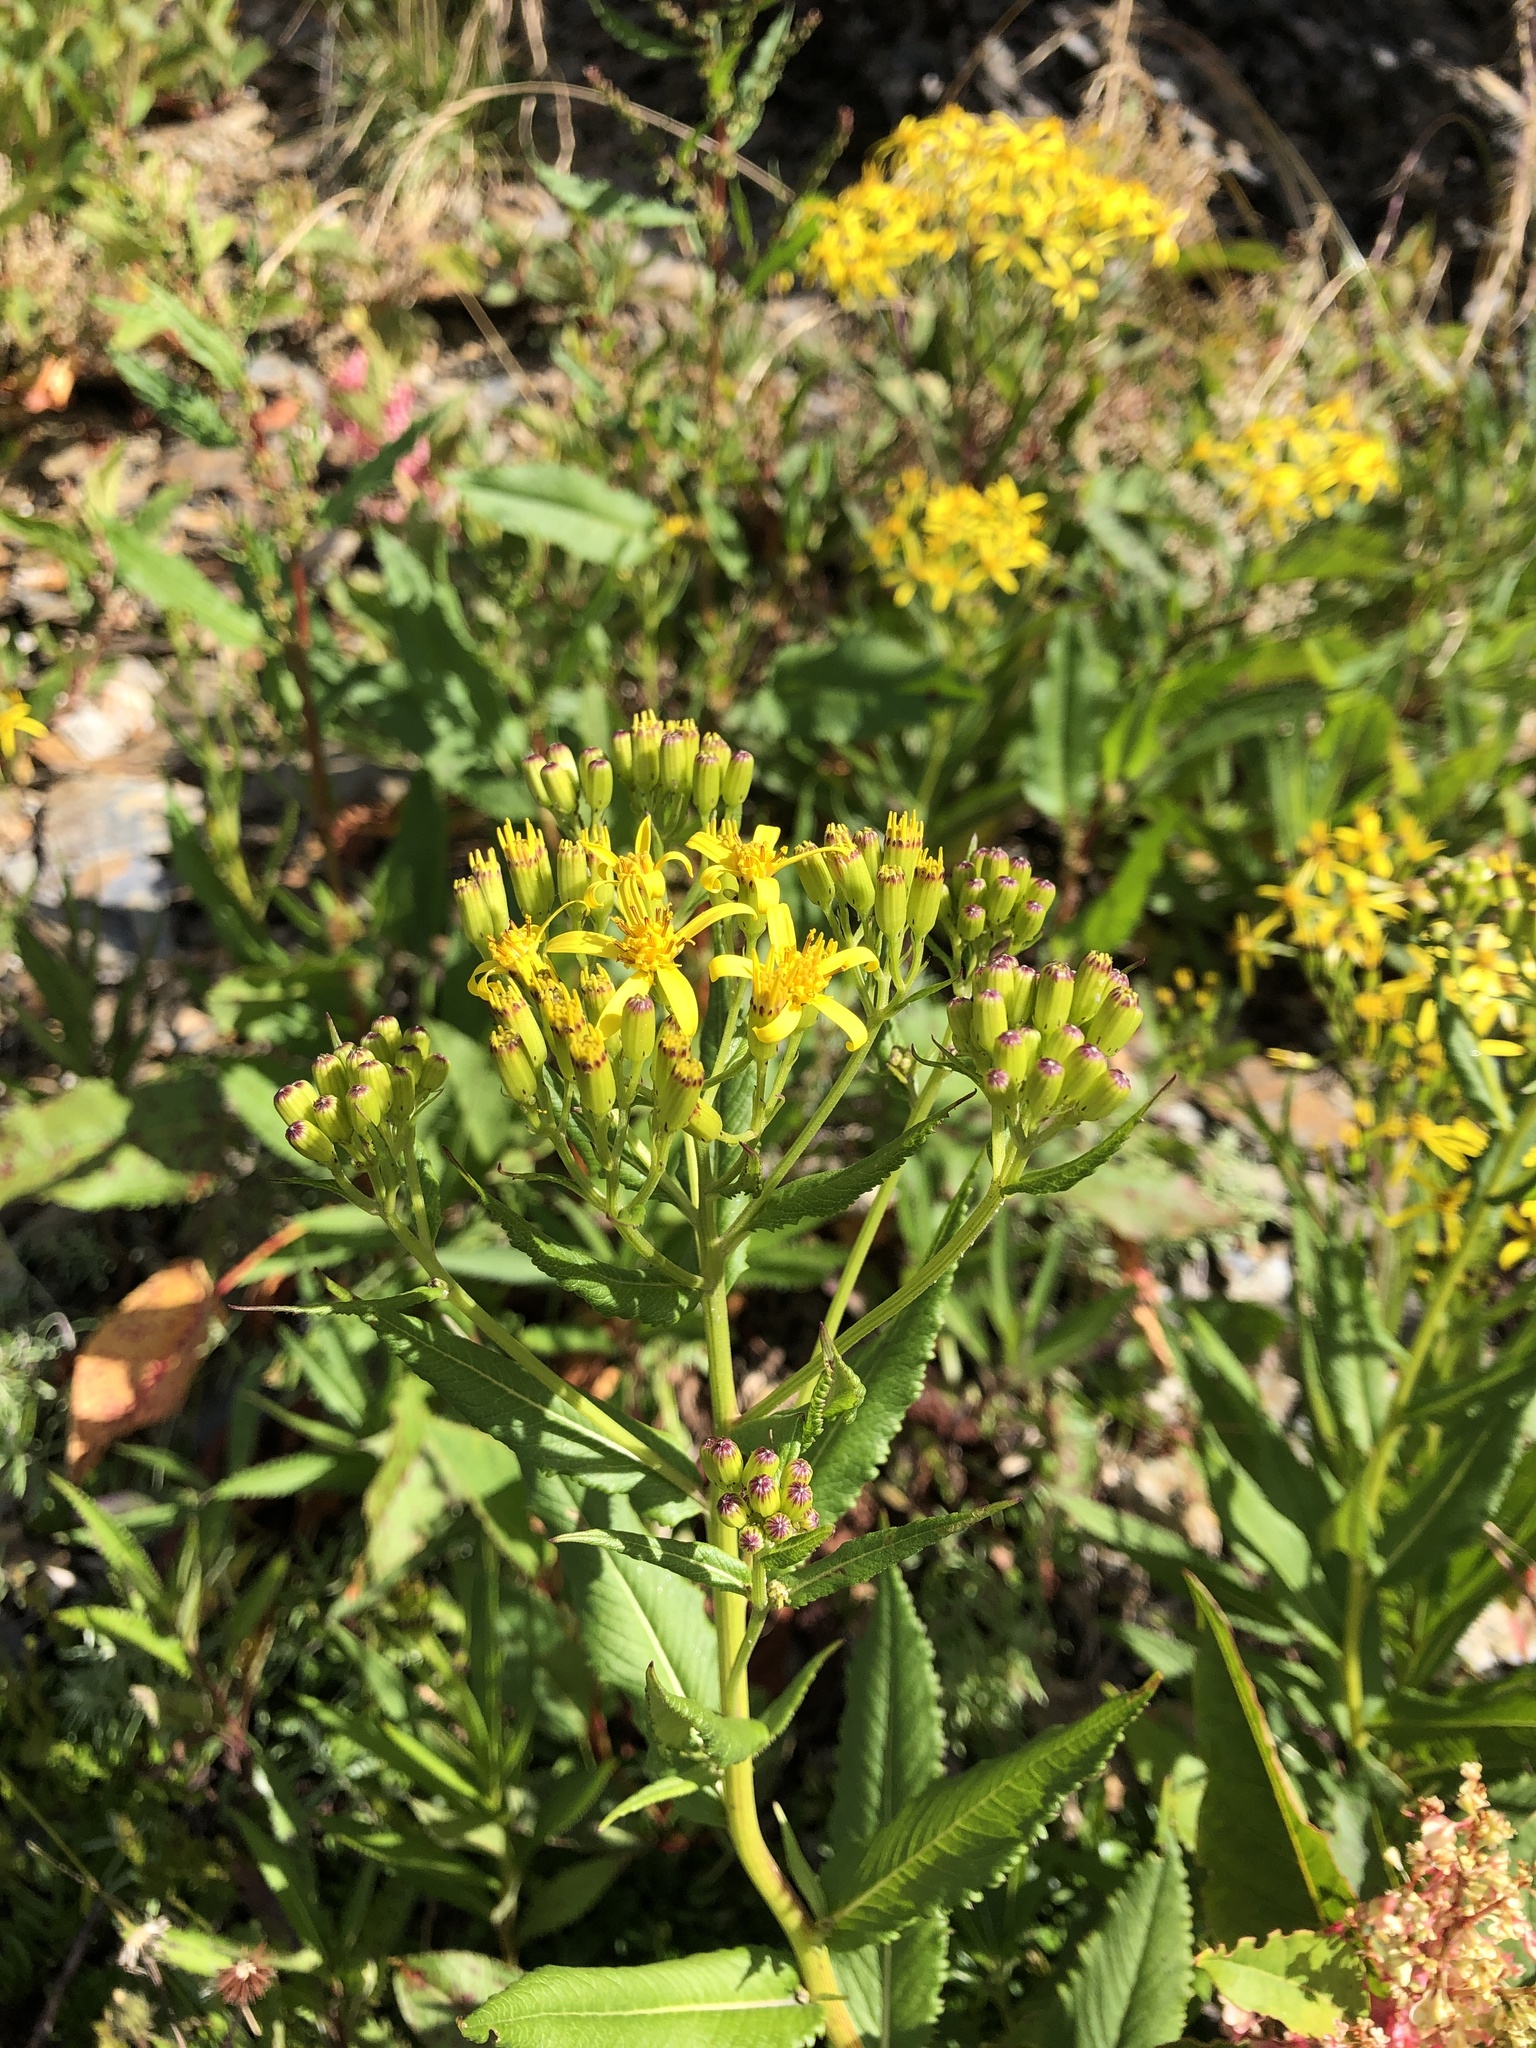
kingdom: Plantae
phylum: Tracheophyta
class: Magnoliopsida
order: Asterales
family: Asteraceae
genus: Jacobaea
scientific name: Jacobaea morrisonensis
